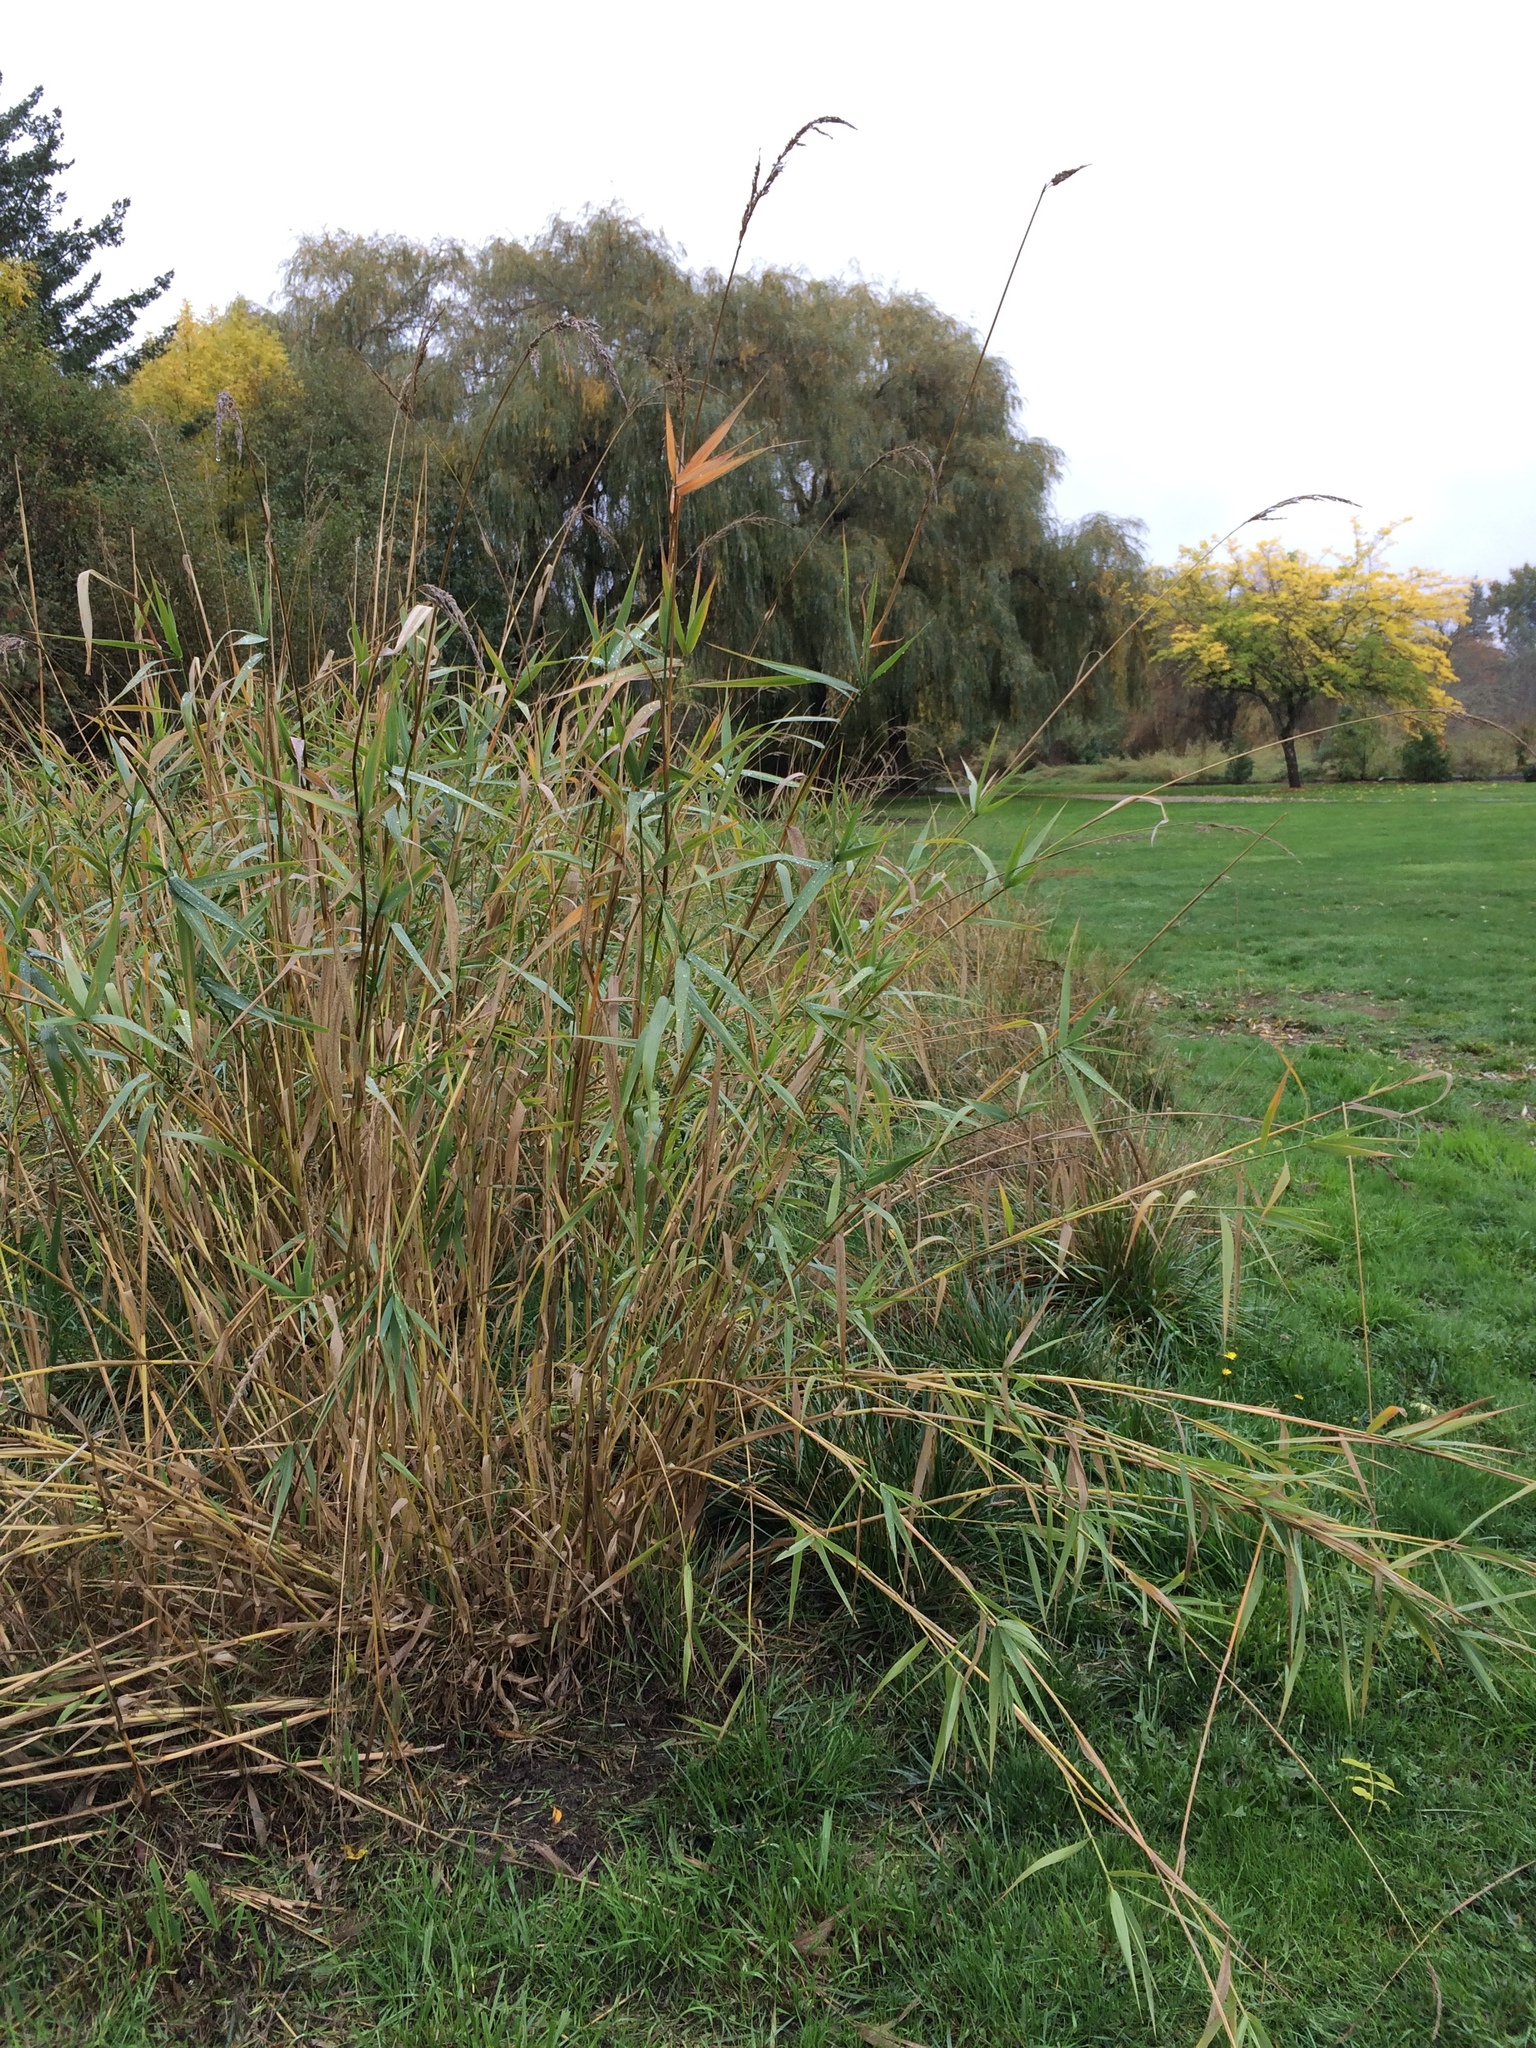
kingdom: Plantae
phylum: Tracheophyta
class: Liliopsida
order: Poales
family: Poaceae
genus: Phalaris
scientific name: Phalaris arundinacea
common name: Reed canary-grass
